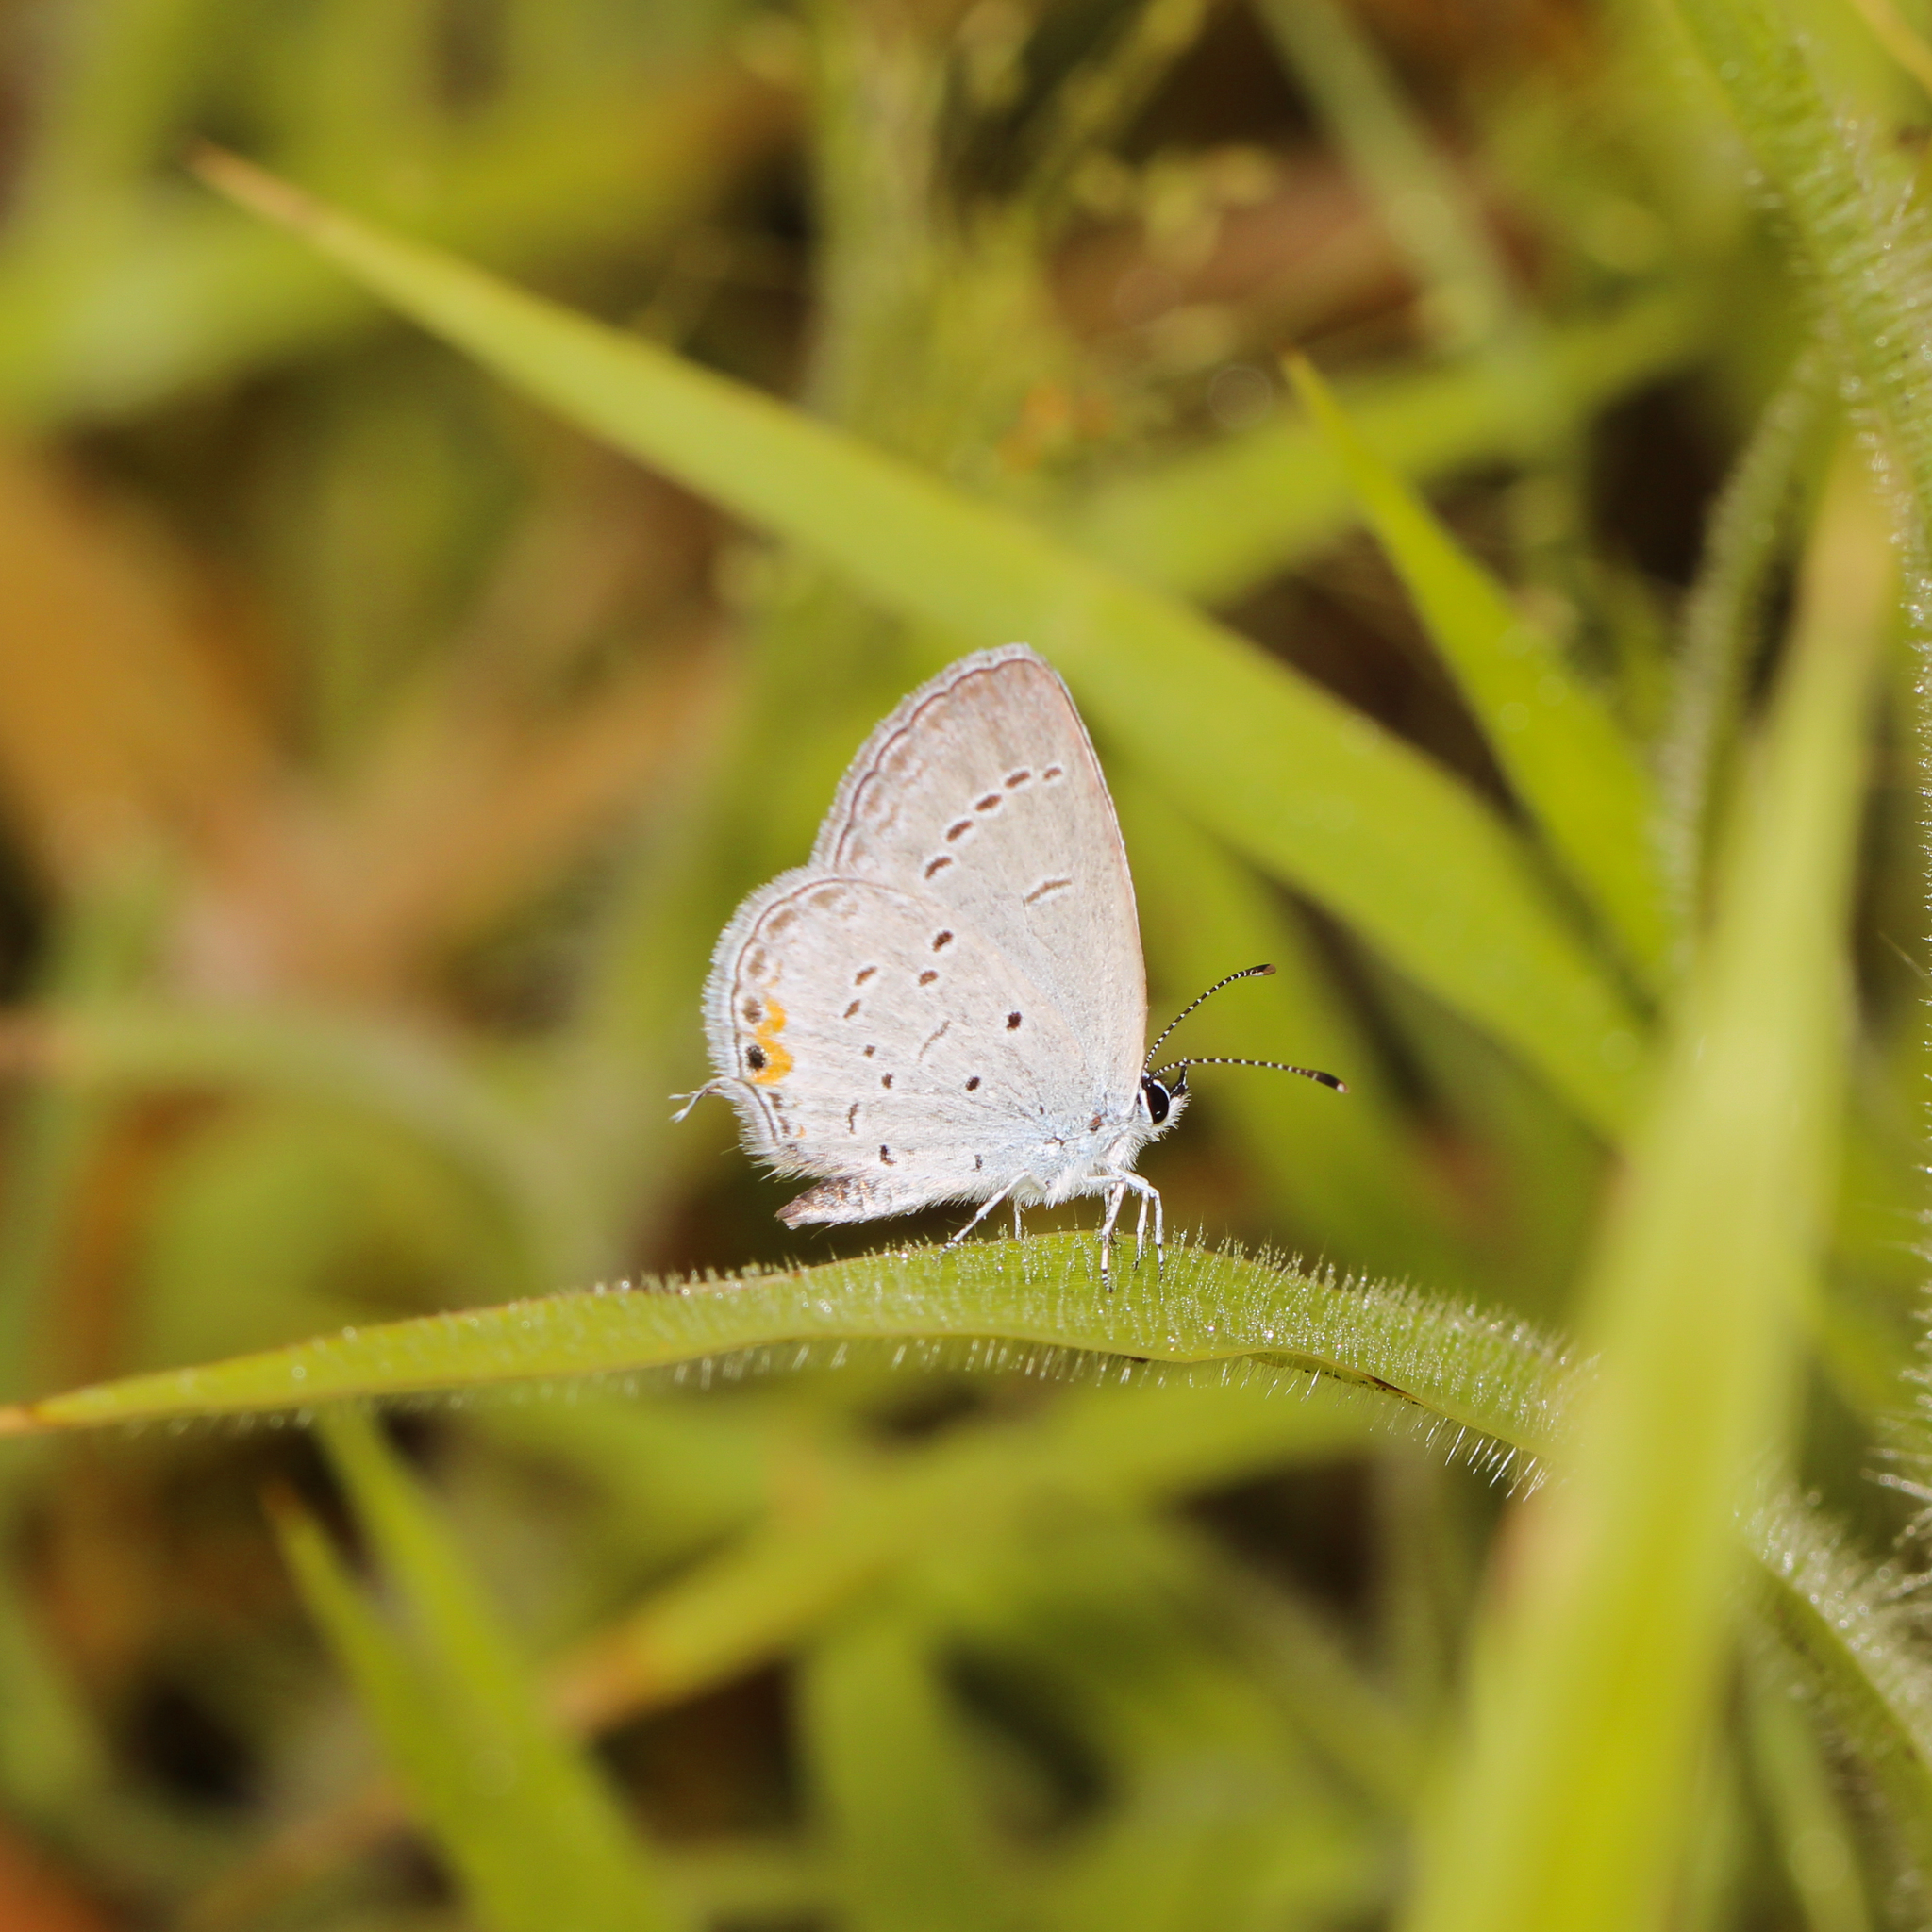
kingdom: Animalia
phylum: Arthropoda
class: Insecta
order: Lepidoptera
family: Lycaenidae
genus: Elkalyce
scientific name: Elkalyce comyntas
